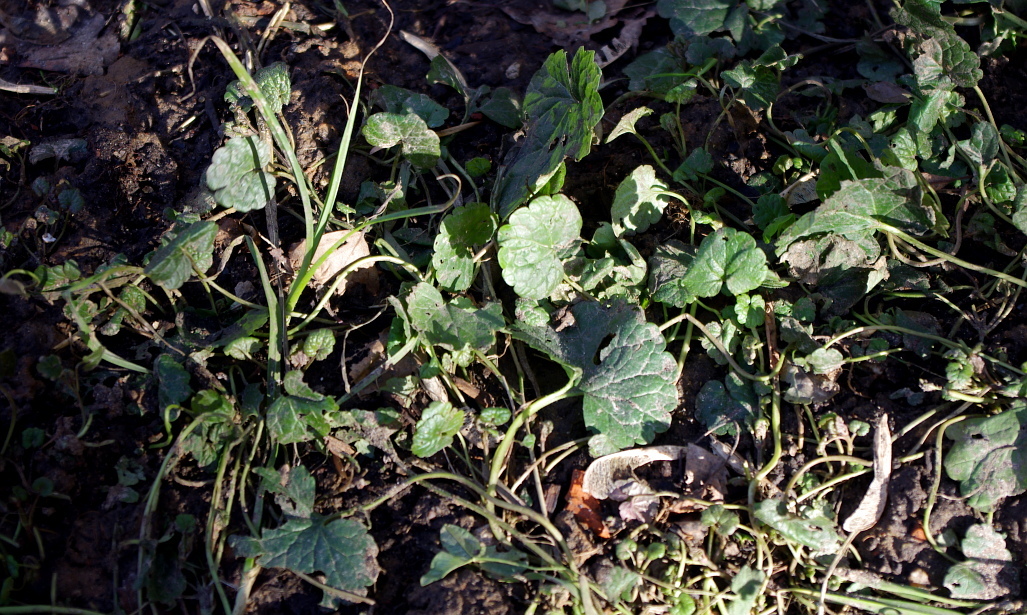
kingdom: Plantae
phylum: Tracheophyta
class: Magnoliopsida
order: Lamiales
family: Lamiaceae
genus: Glechoma
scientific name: Glechoma hederacea
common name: Ground ivy
